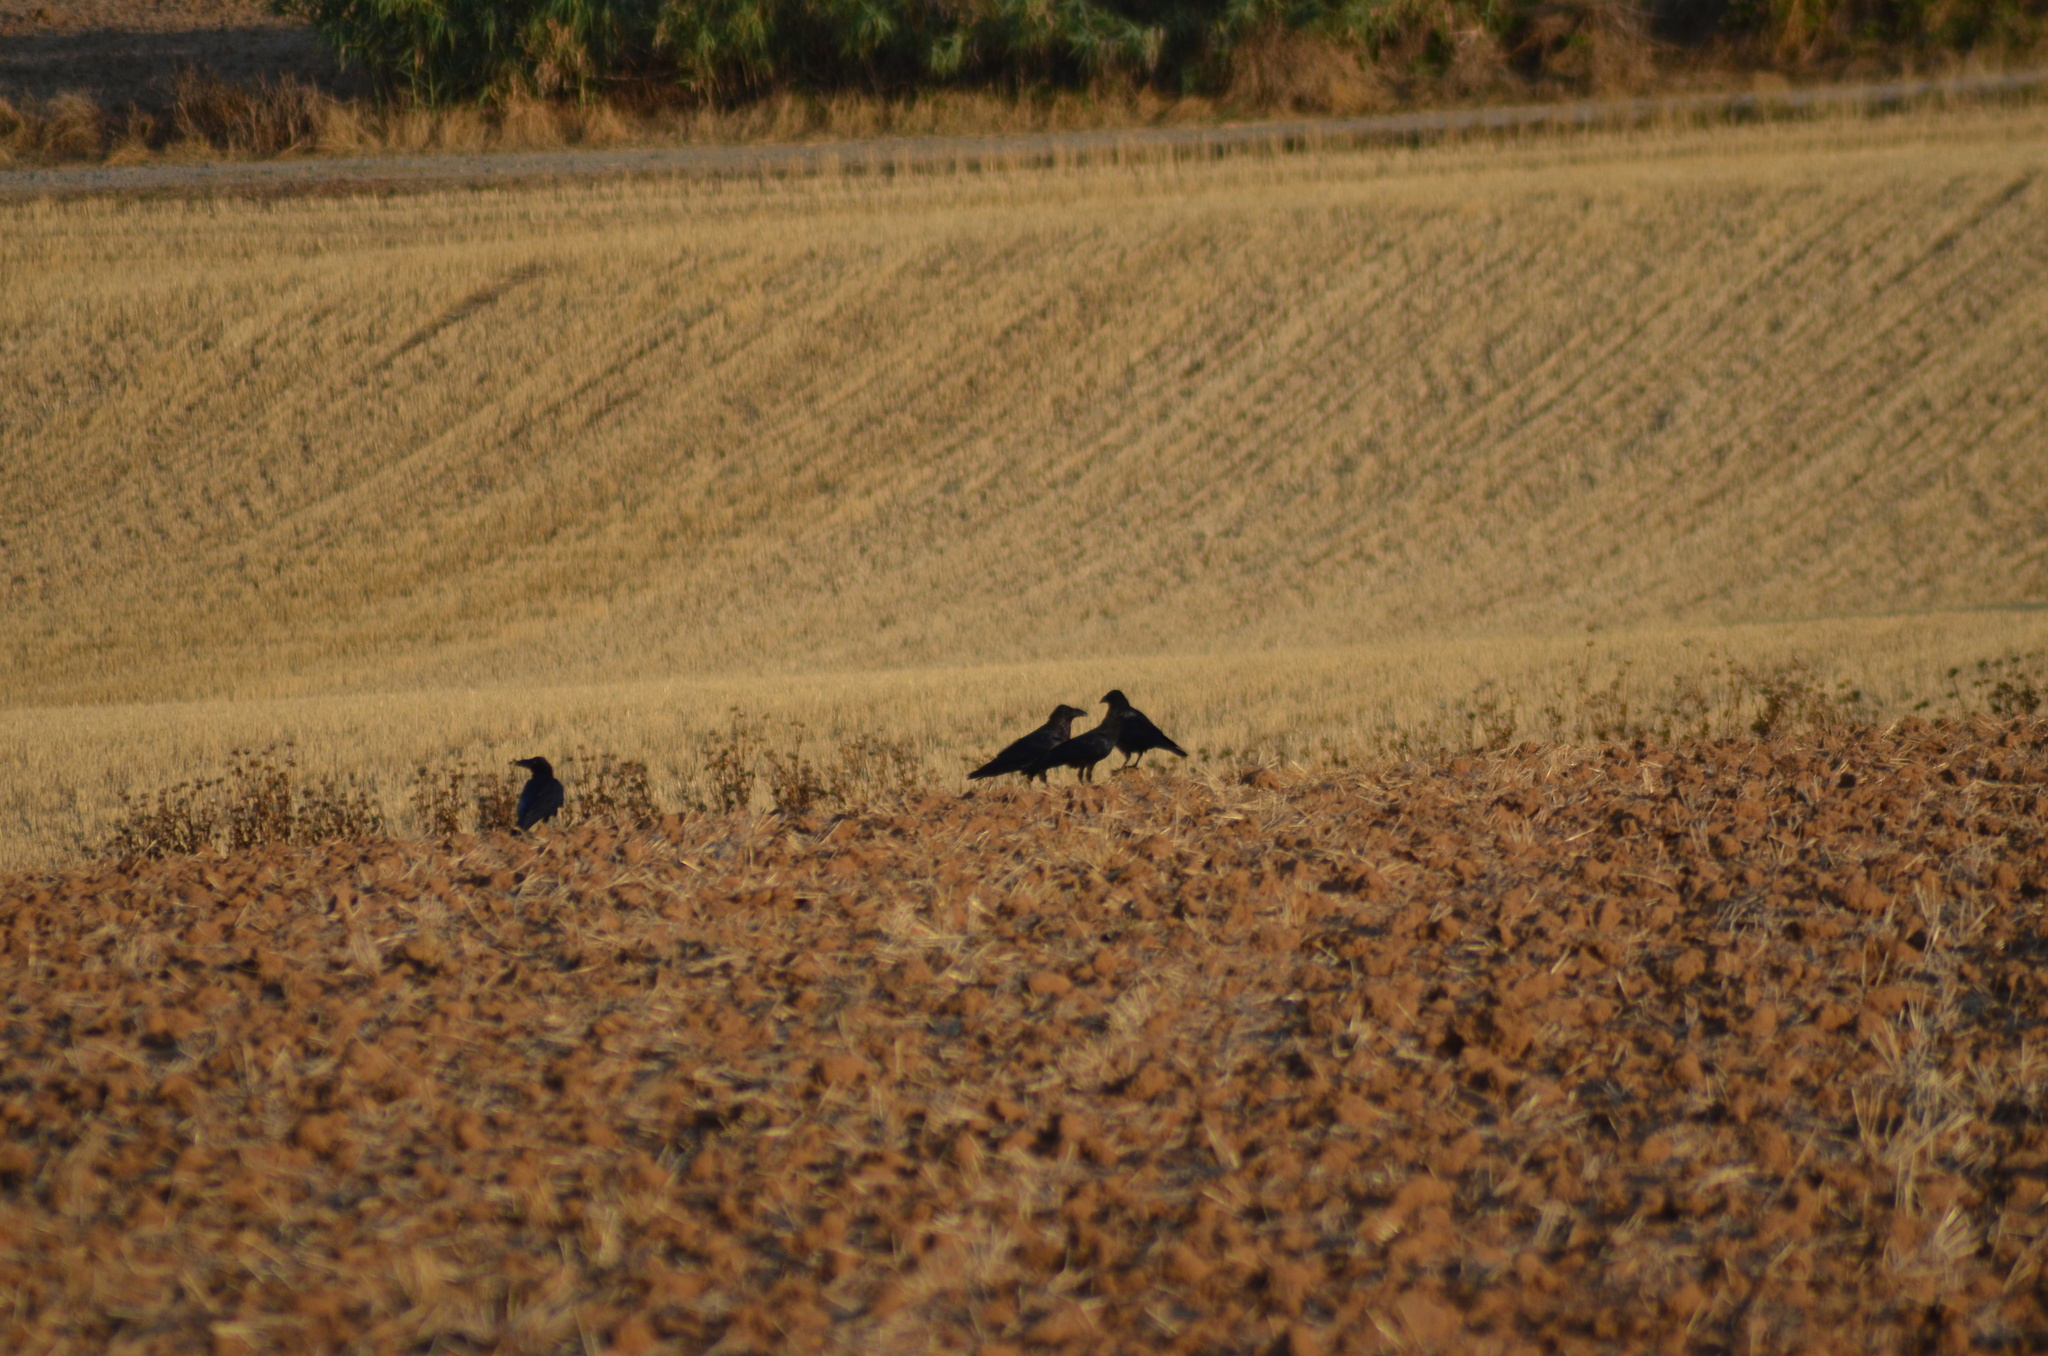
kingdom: Animalia
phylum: Chordata
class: Aves
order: Passeriformes
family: Corvidae
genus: Corvus
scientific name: Corvus corax
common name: Common raven
